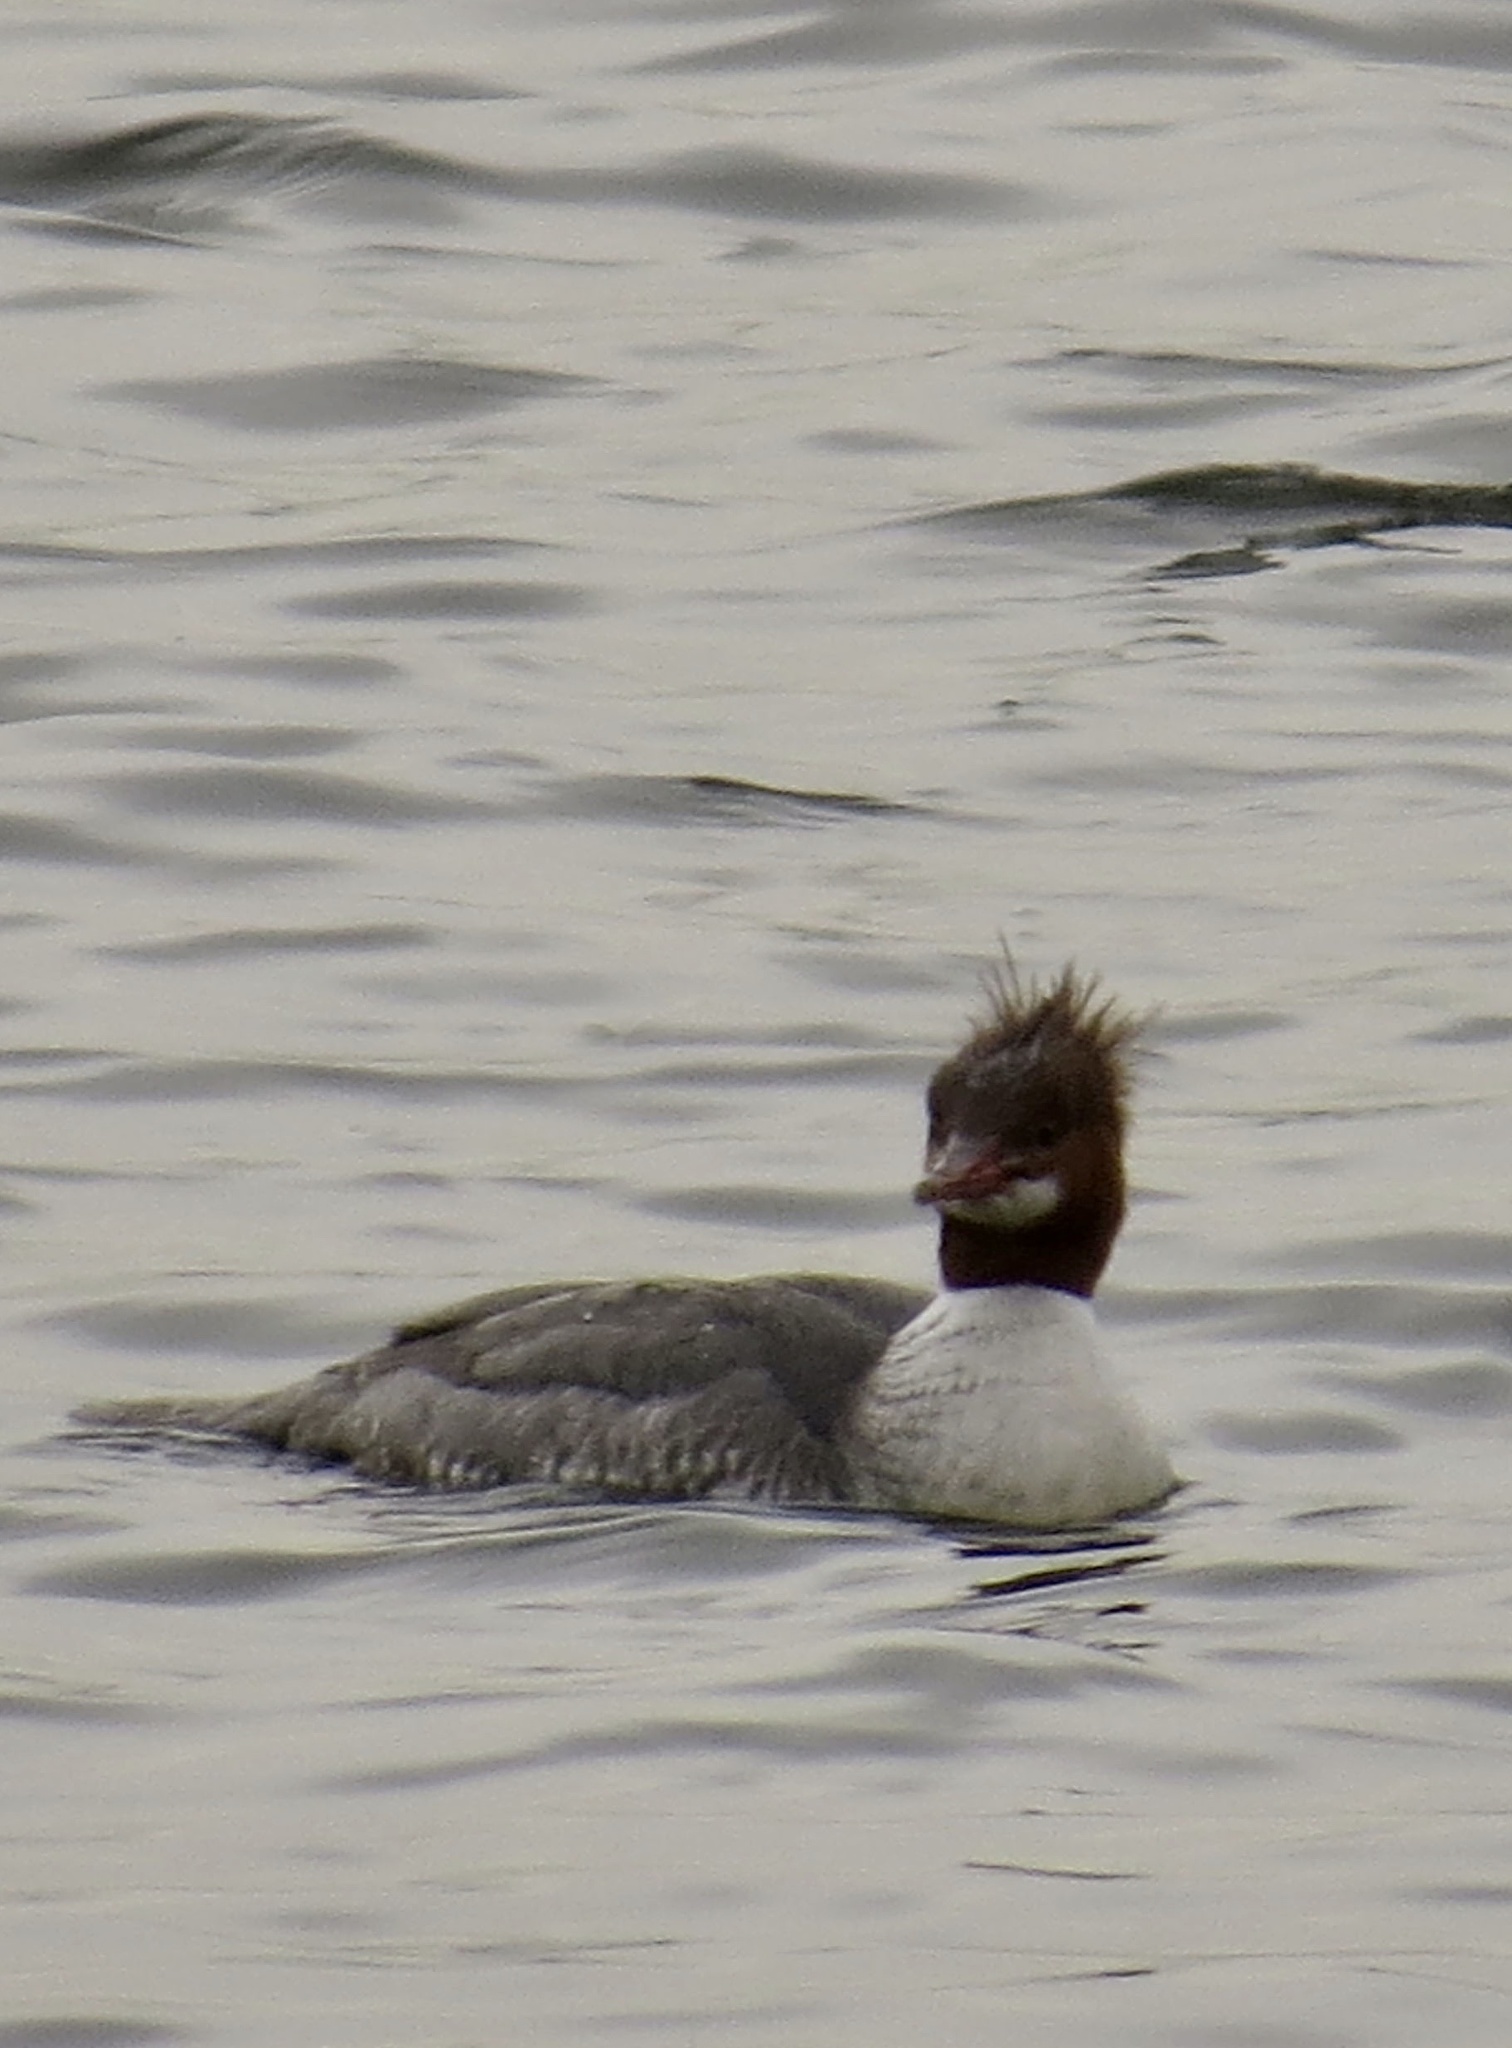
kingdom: Animalia
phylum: Chordata
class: Aves
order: Anseriformes
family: Anatidae
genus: Mergus
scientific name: Mergus merganser
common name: Common merganser
